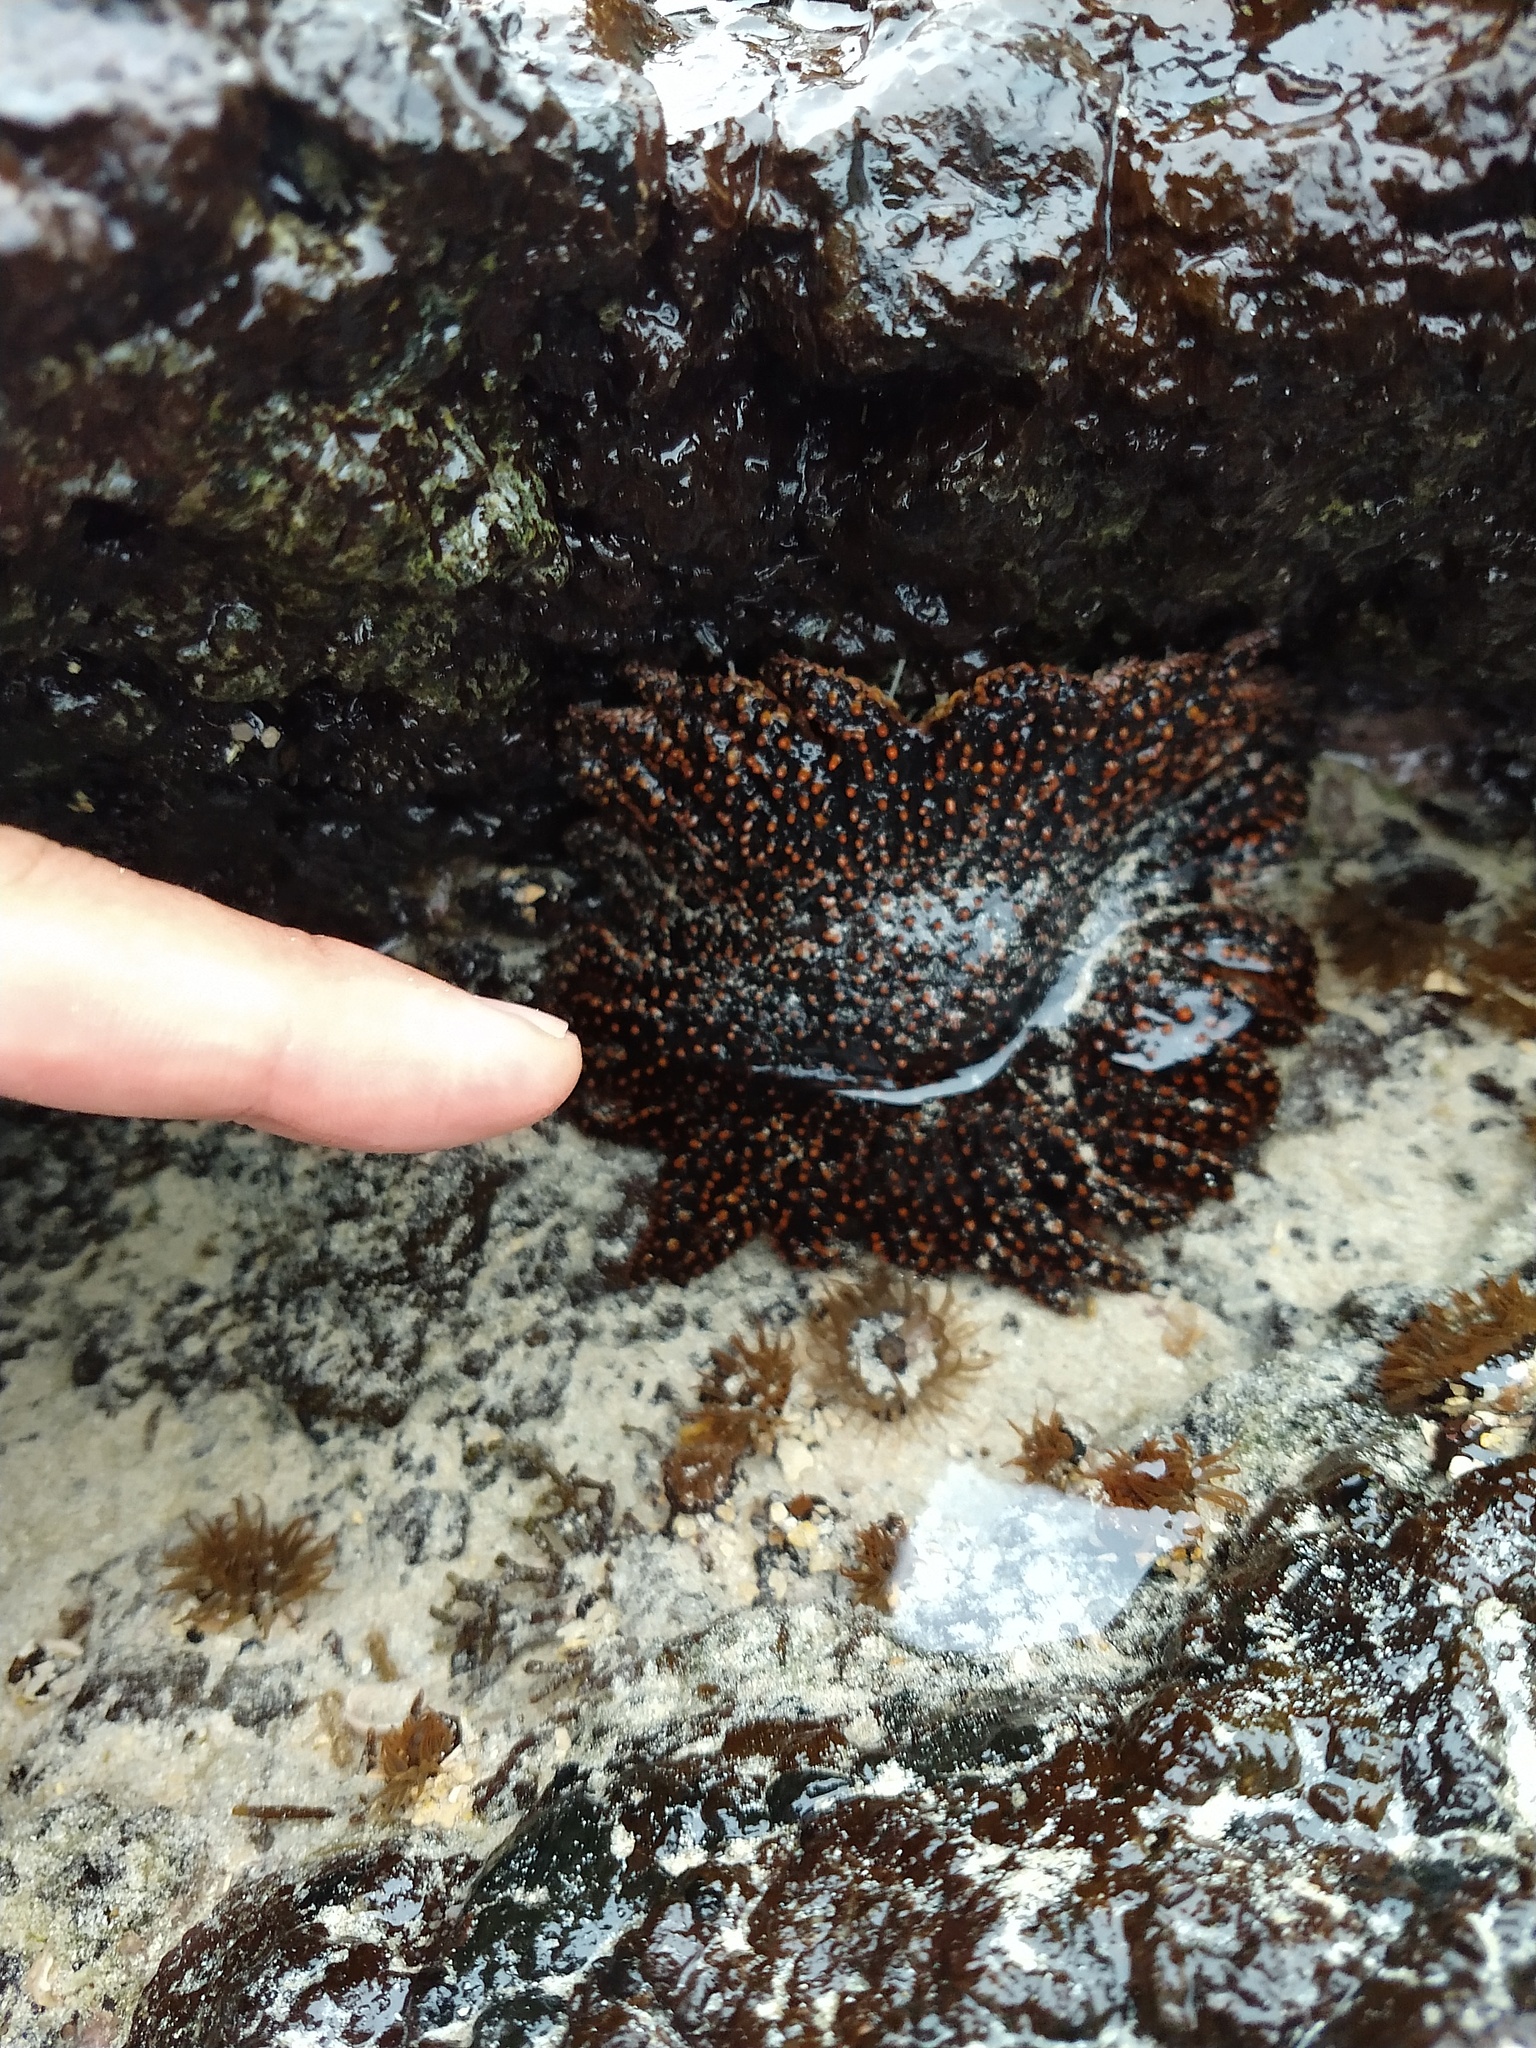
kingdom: Animalia
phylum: Echinodermata
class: Asteroidea
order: Forcipulatida
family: Heliasteridae
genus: Heliaster
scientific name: Heliaster cumingi
